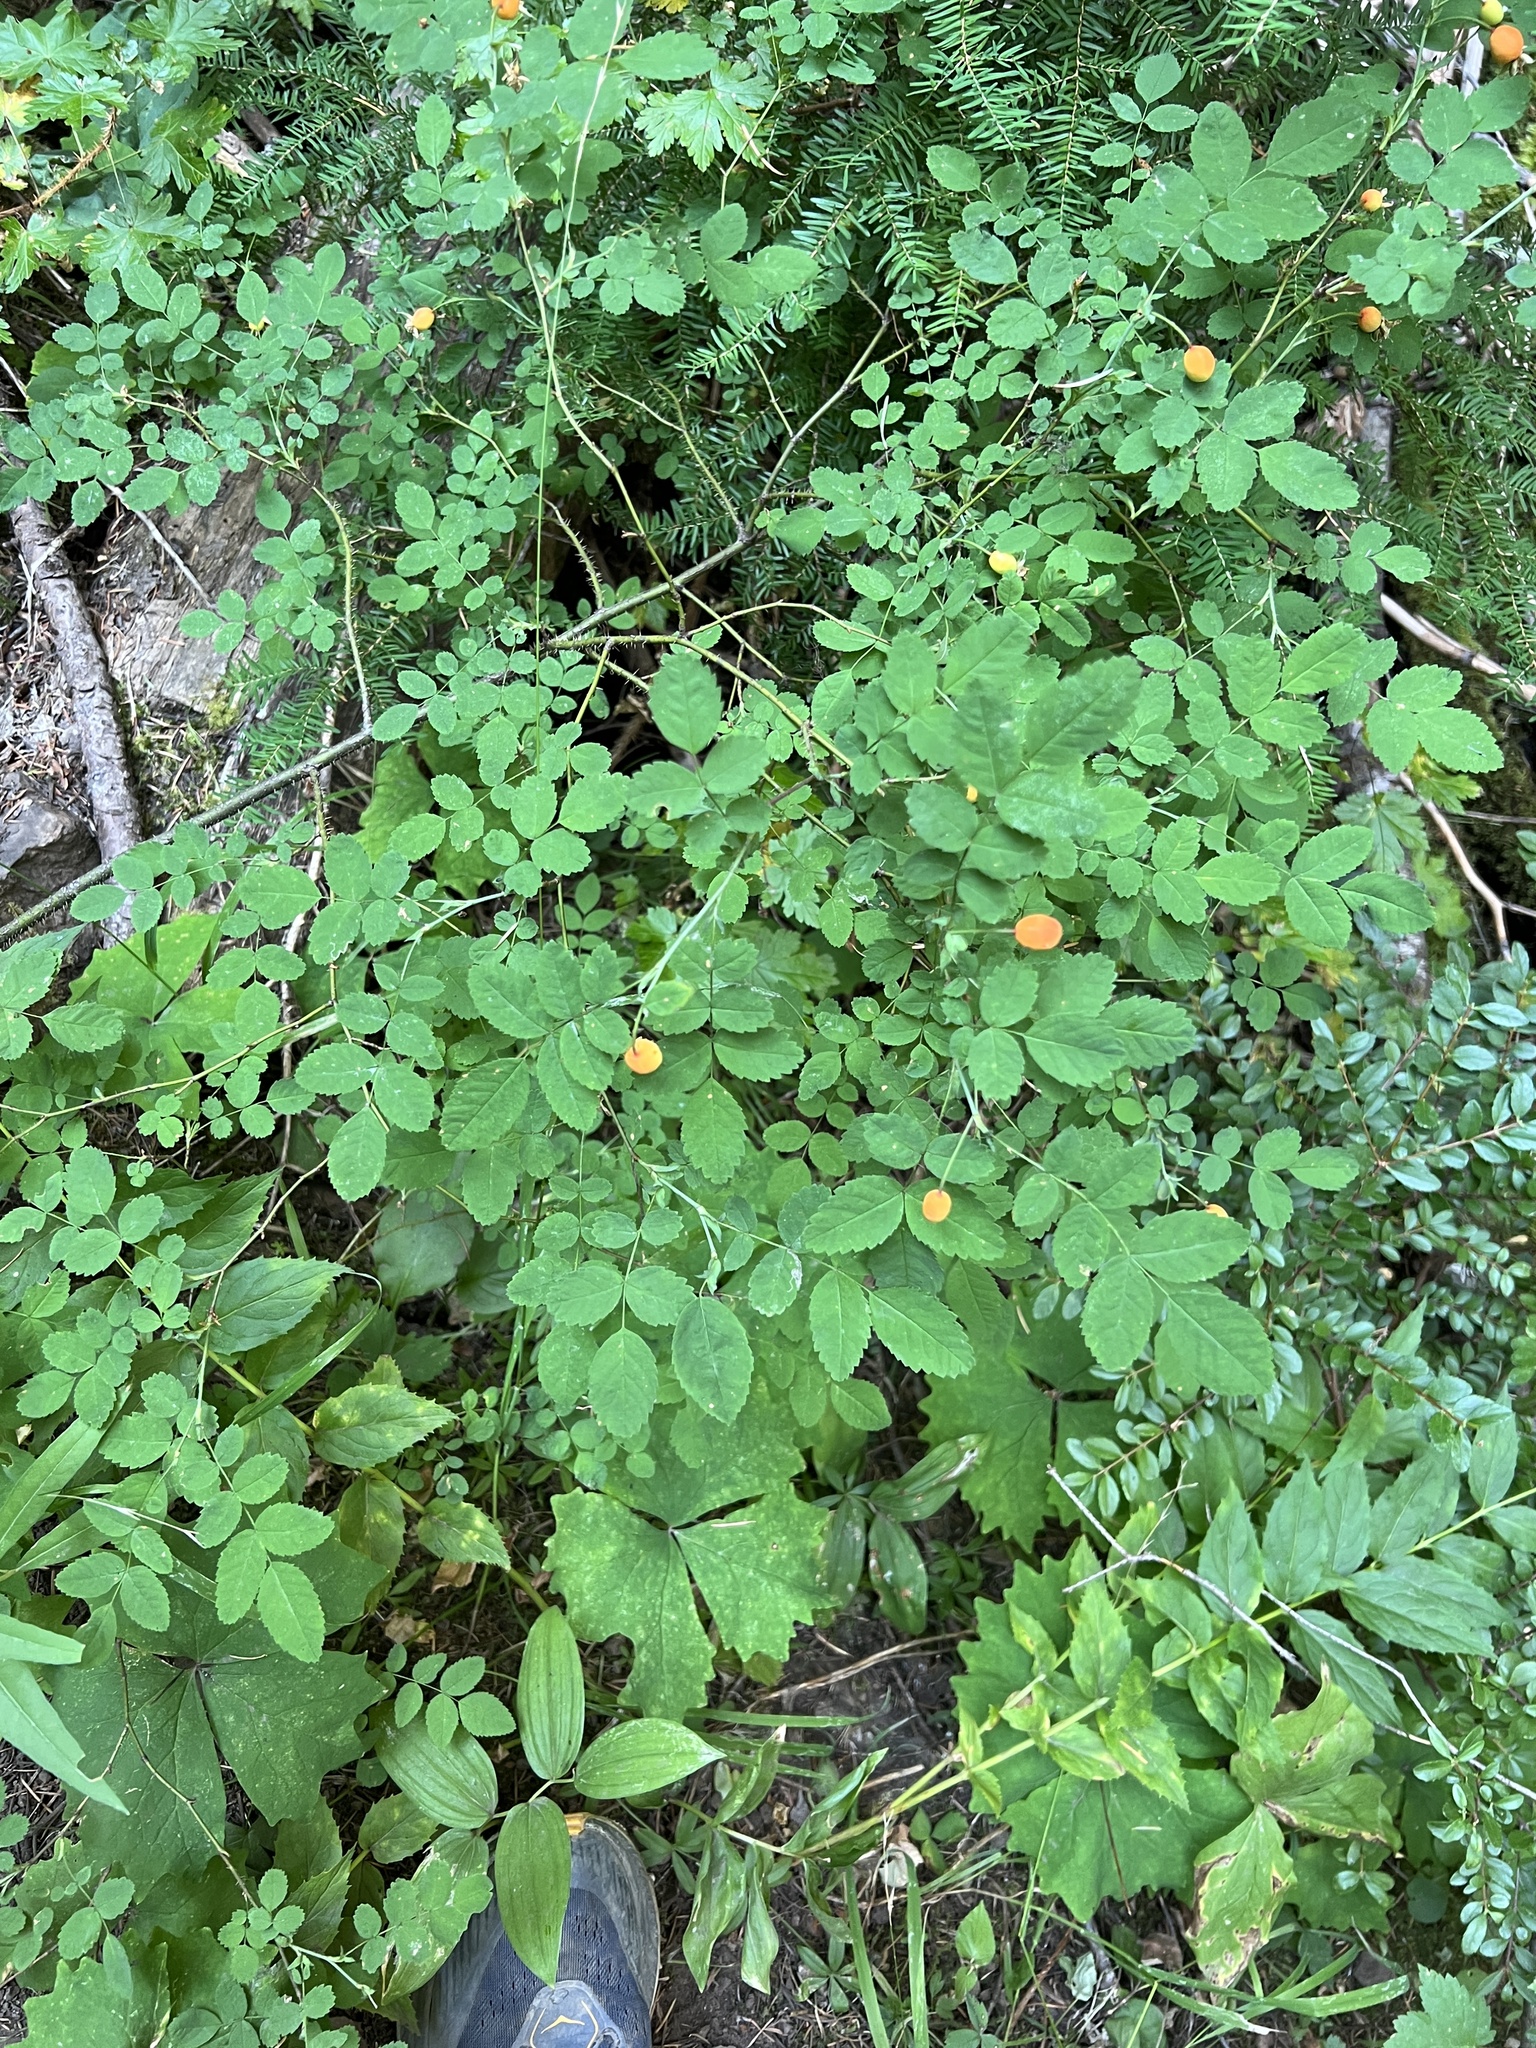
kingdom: Plantae
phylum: Tracheophyta
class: Magnoliopsida
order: Rosales
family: Rosaceae
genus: Rosa
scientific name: Rosa gymnocarpa
